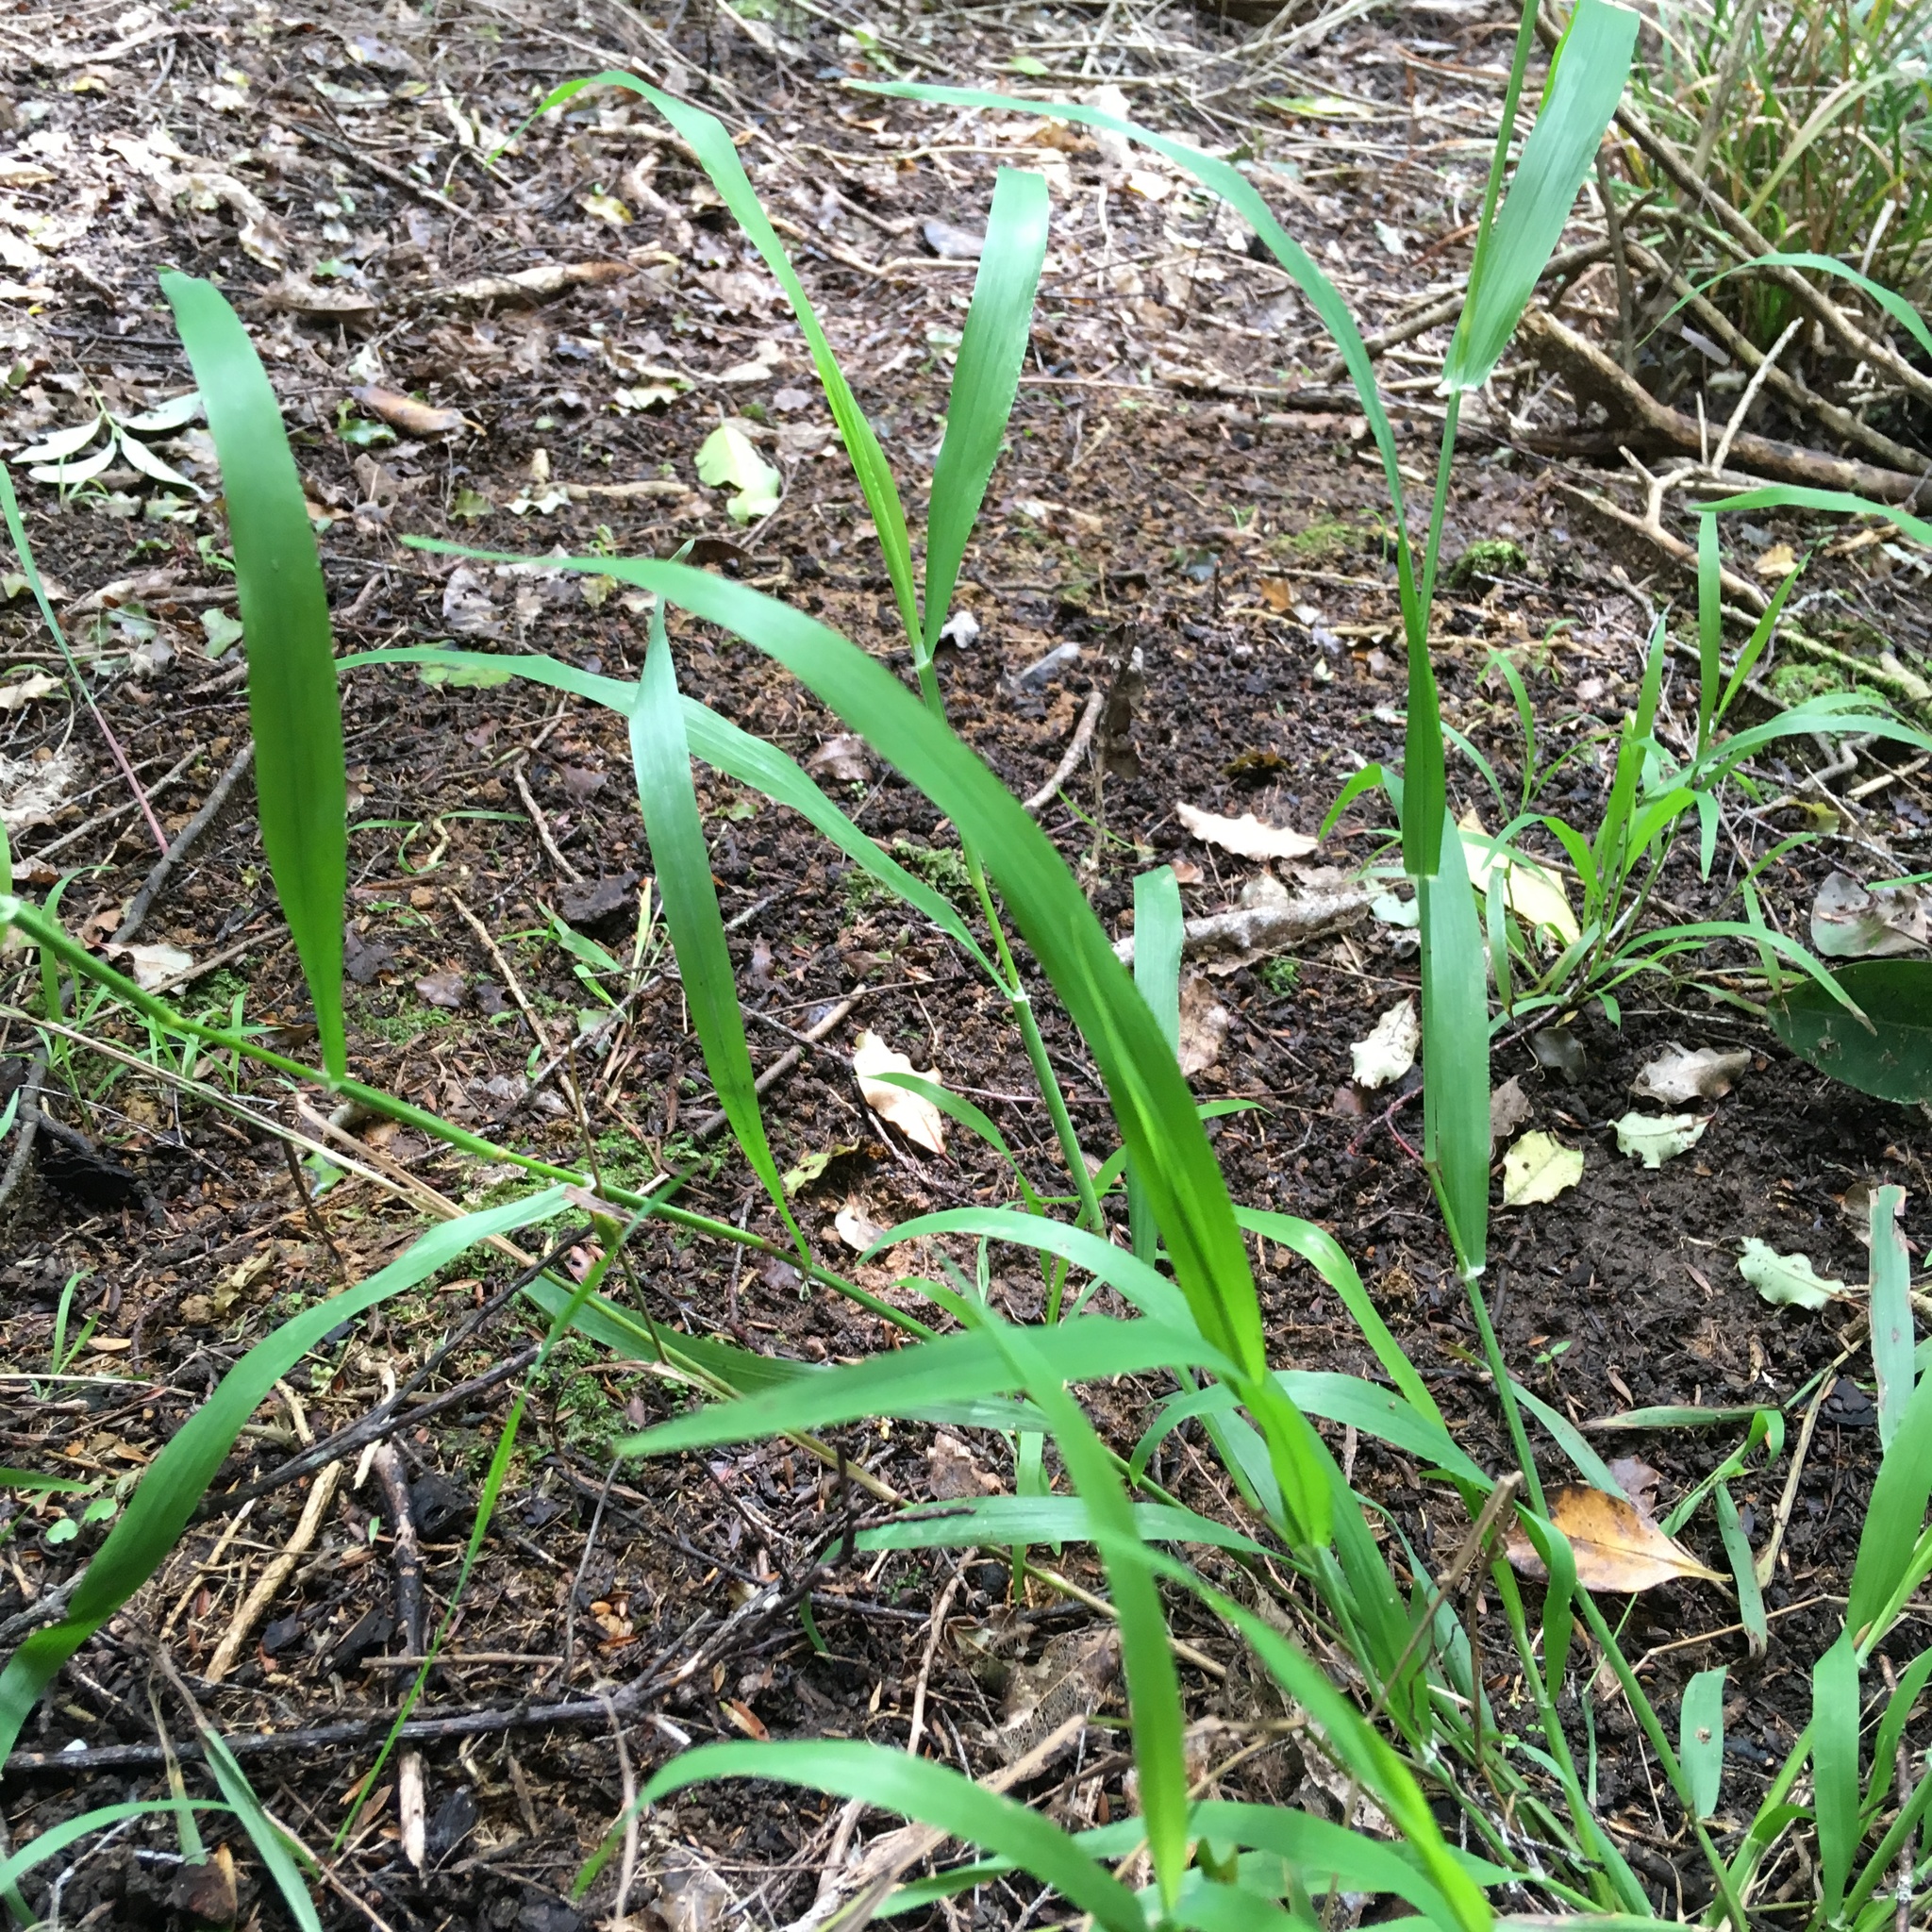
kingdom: Plantae
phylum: Tracheophyta
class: Liliopsida
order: Poales
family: Poaceae
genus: Ehrharta
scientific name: Ehrharta erecta
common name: Panic veldtgrass
